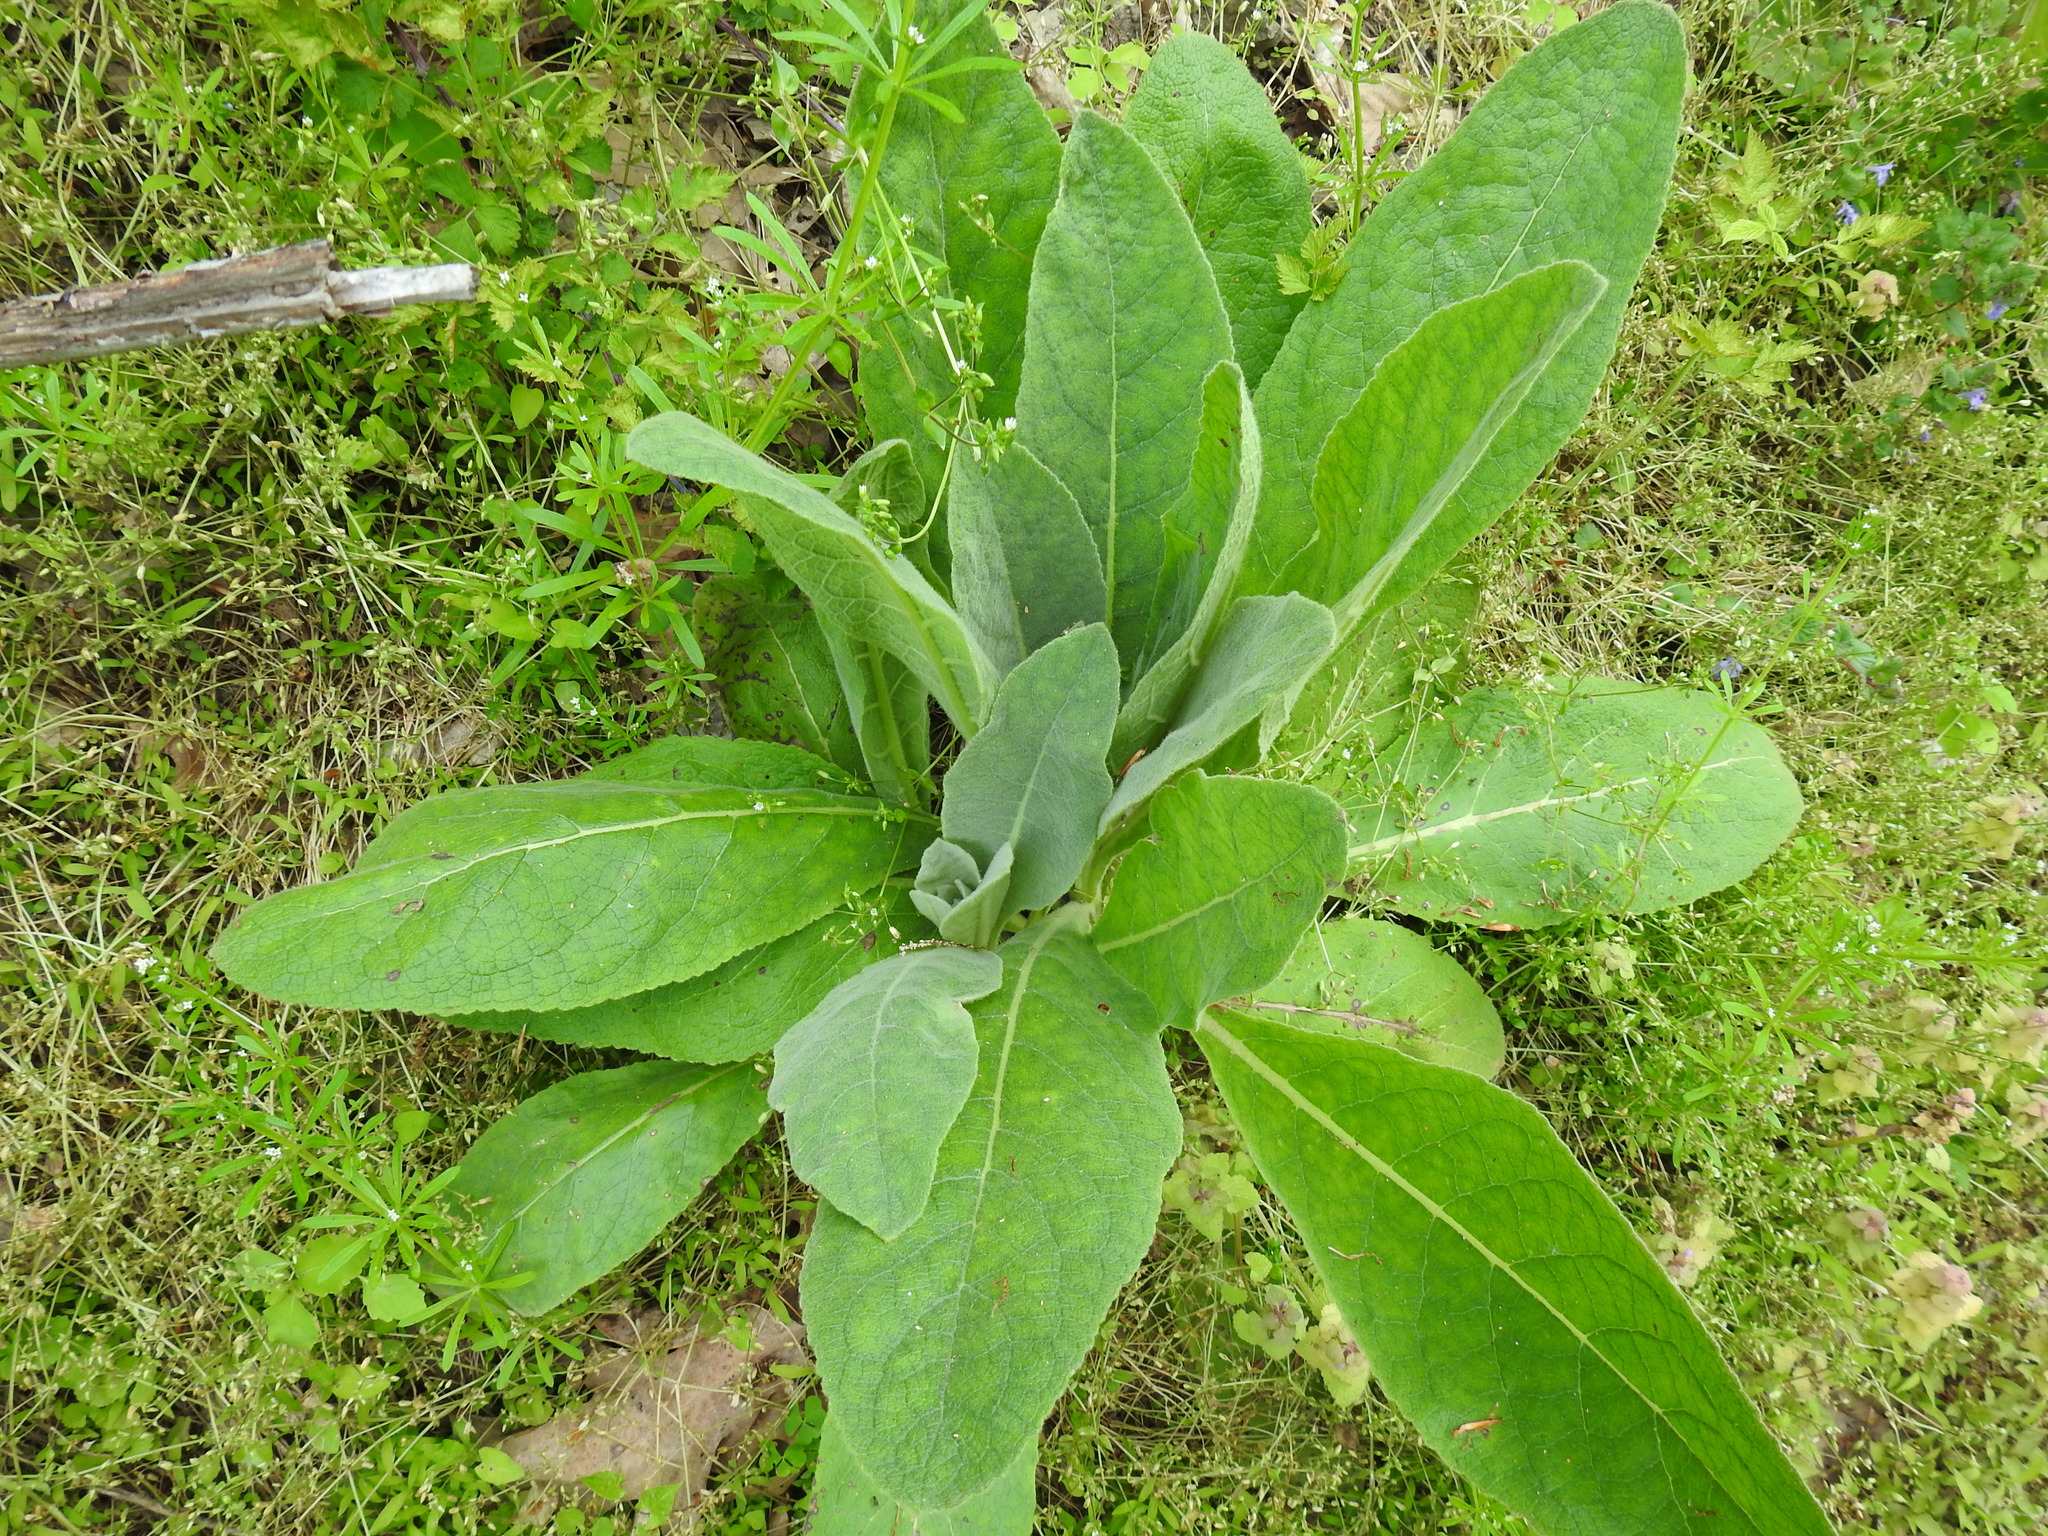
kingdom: Plantae
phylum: Tracheophyta
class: Magnoliopsida
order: Lamiales
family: Scrophulariaceae
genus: Verbascum
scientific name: Verbascum thapsus
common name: Common mullein
